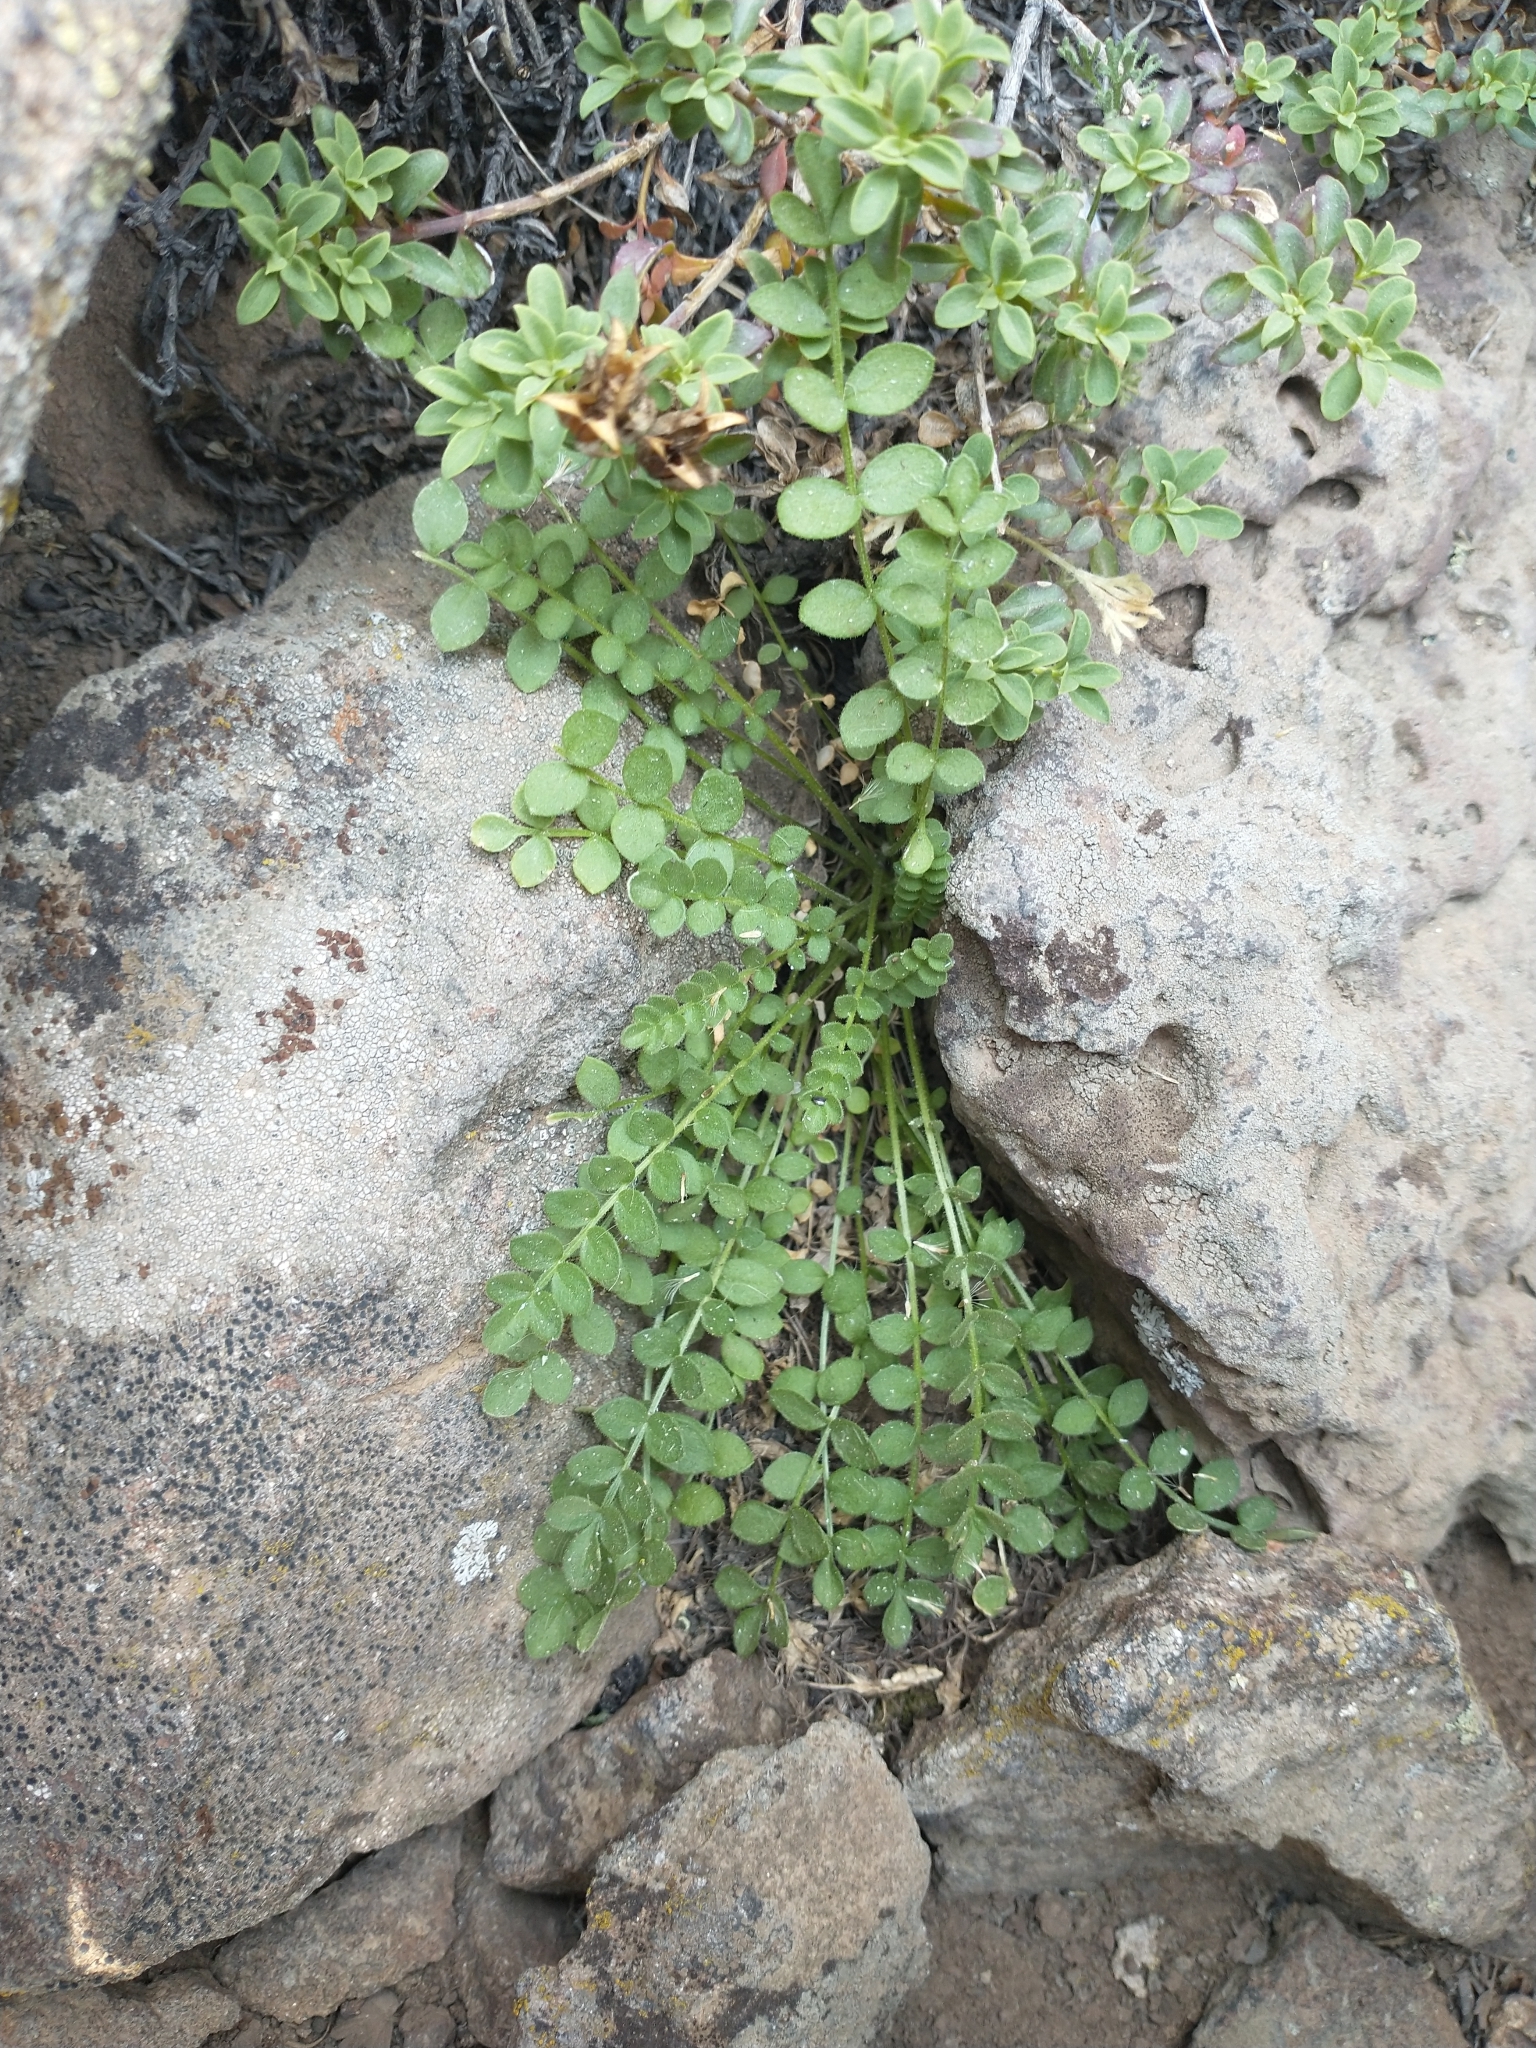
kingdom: Plantae
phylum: Tracheophyta
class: Magnoliopsida
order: Ericales
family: Polemoniaceae
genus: Polemonium
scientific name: Polemonium pulcherrimum
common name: Short jacob's-ladder
